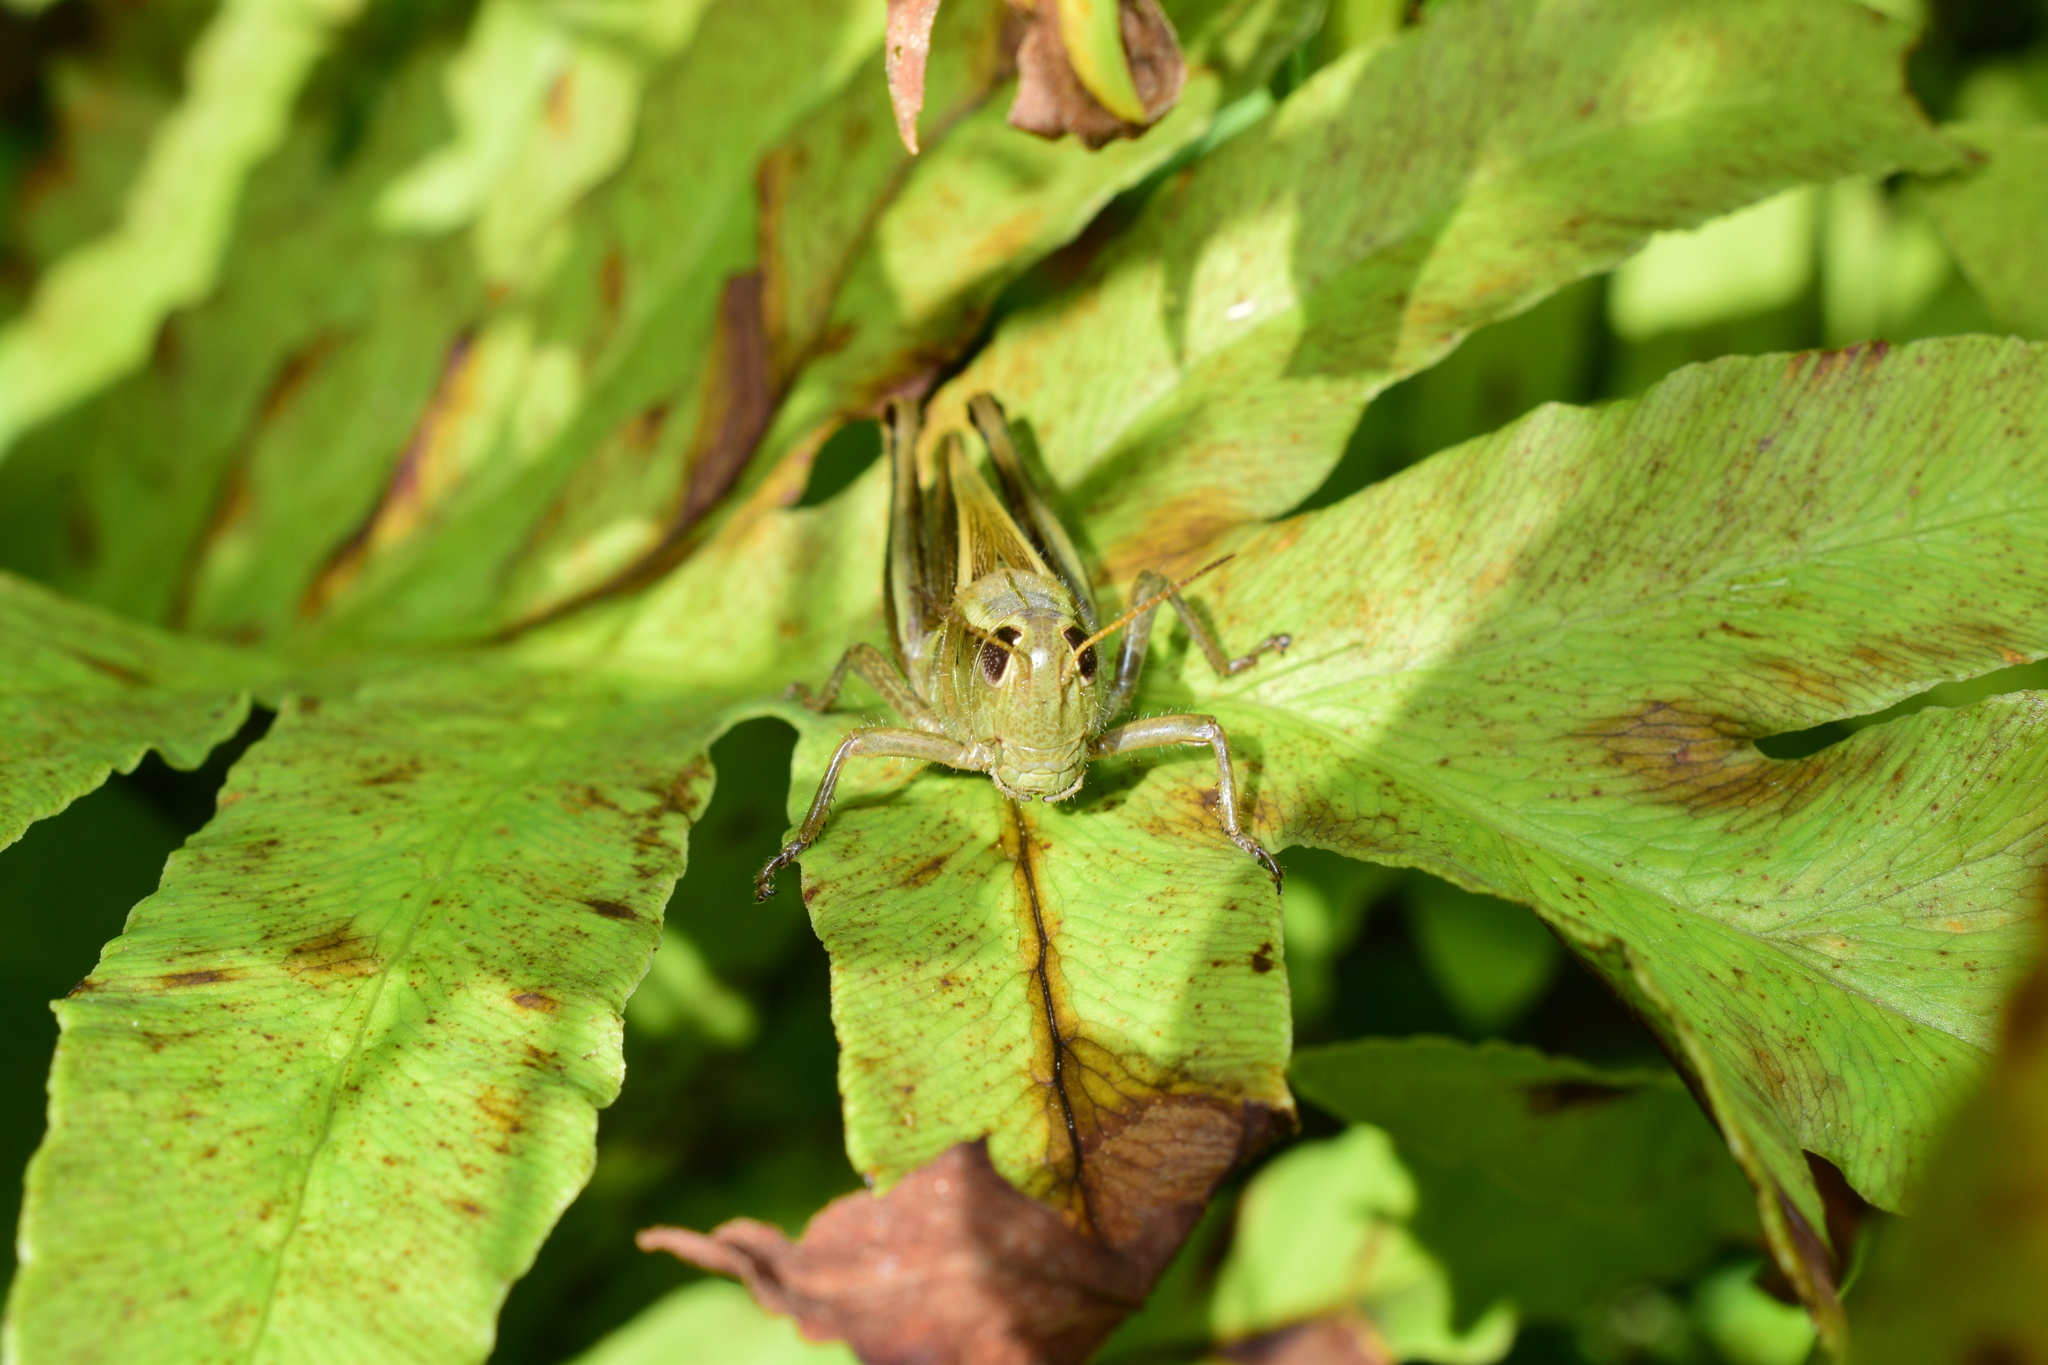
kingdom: Animalia
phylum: Arthropoda
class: Insecta
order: Orthoptera
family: Acrididae
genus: Melanoplus
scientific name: Melanoplus bivittatus
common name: Two-striped grasshopper
